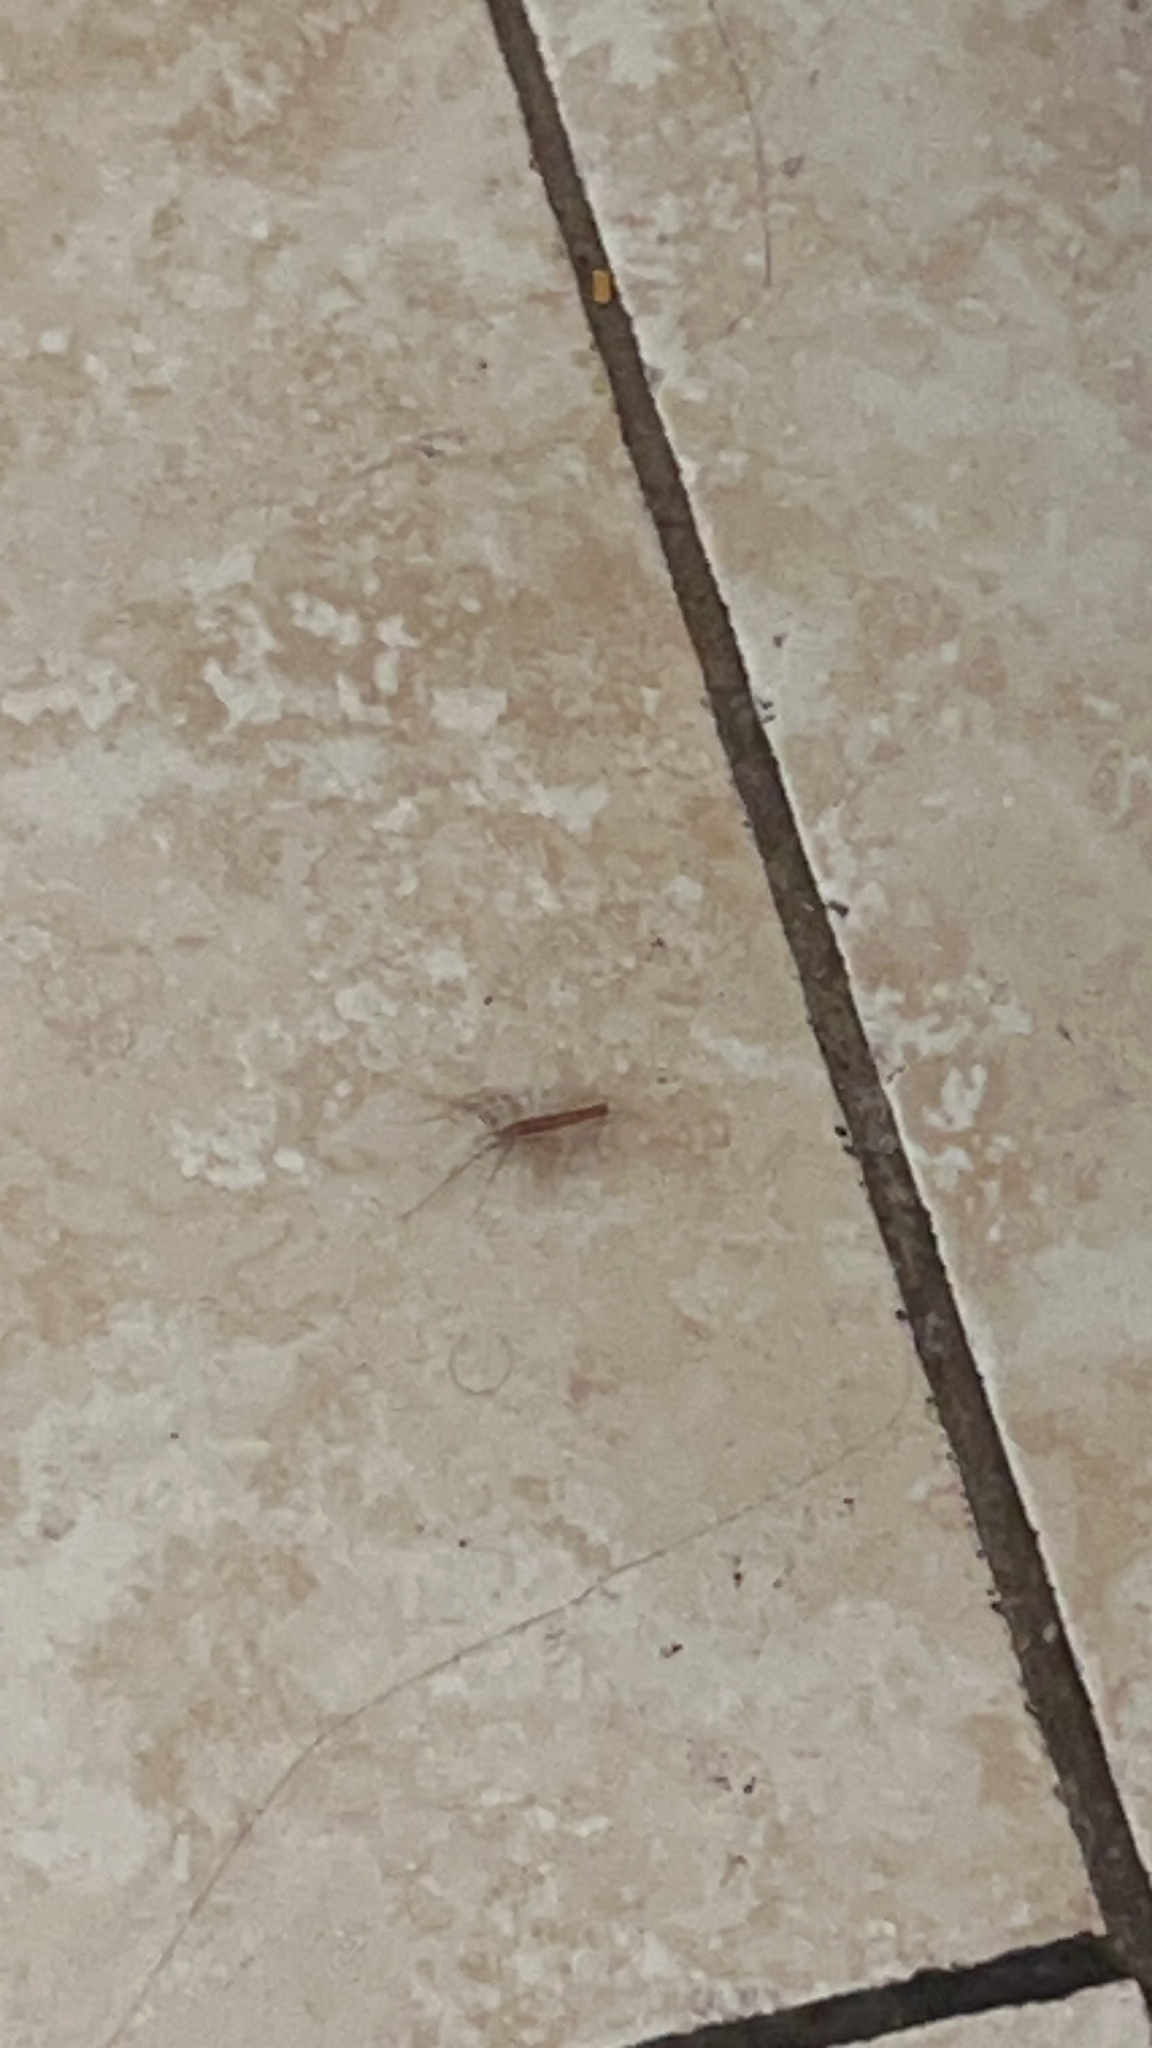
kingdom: Animalia
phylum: Arthropoda
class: Chilopoda
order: Scutigeromorpha
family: Scutigeridae
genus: Scutigera
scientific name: Scutigera coleoptrata
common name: House centipede
